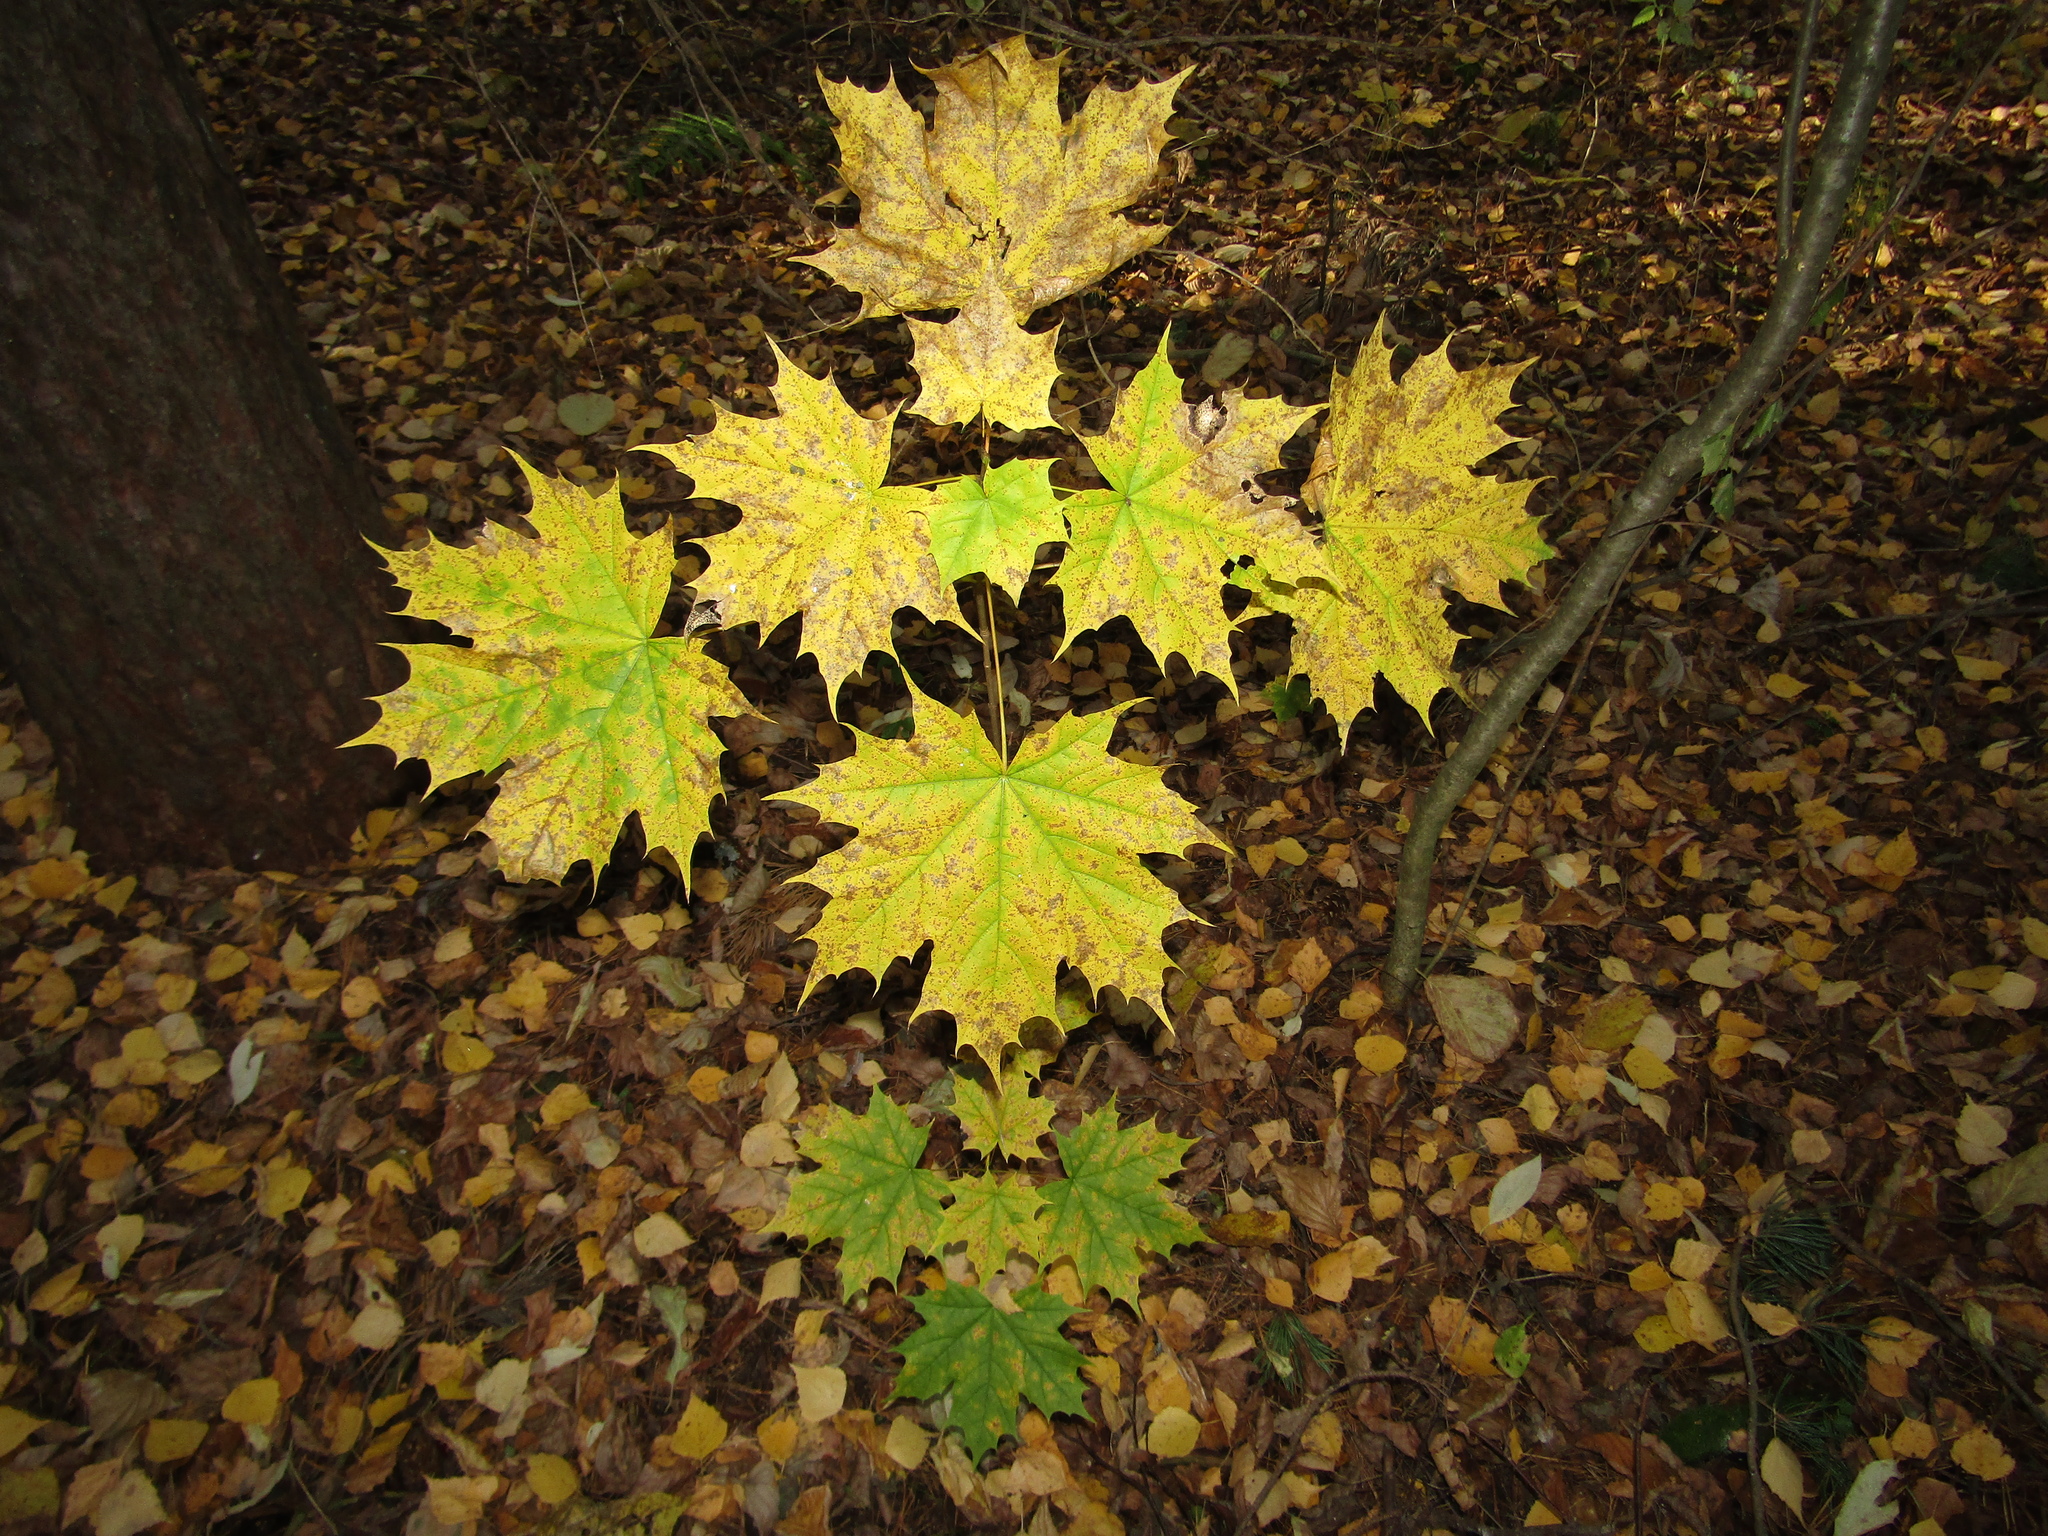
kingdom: Plantae
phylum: Tracheophyta
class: Magnoliopsida
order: Sapindales
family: Sapindaceae
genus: Acer
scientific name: Acer platanoides
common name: Norway maple
